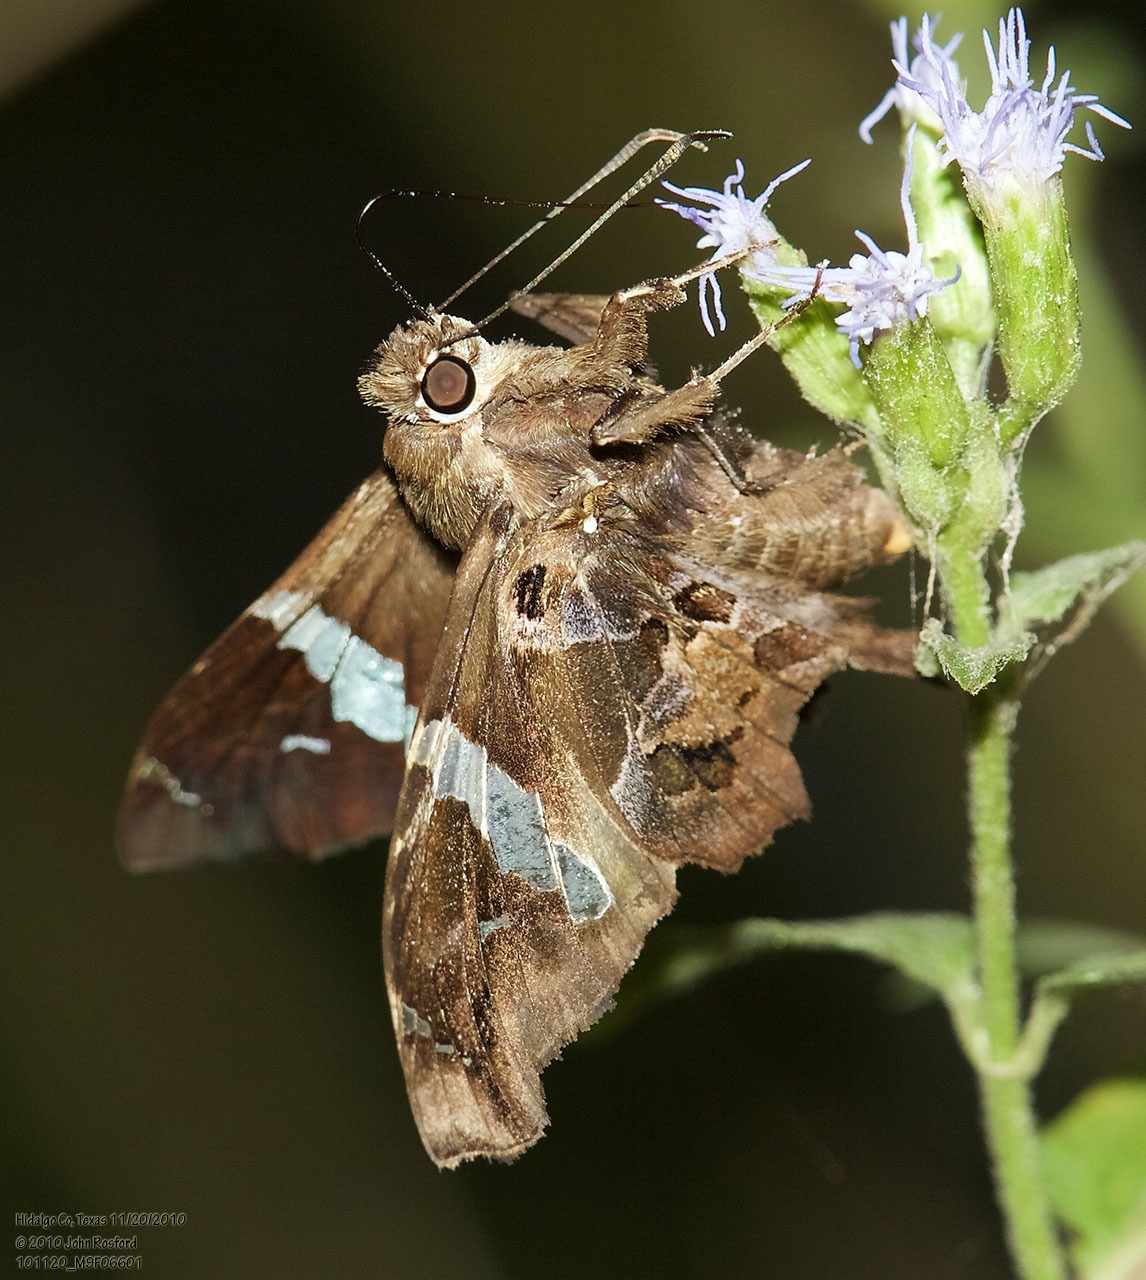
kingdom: Animalia
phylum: Arthropoda
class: Insecta
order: Lepidoptera
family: Hesperiidae
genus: Spathilepia
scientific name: Spathilepia clonius
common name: Falcate skipper
